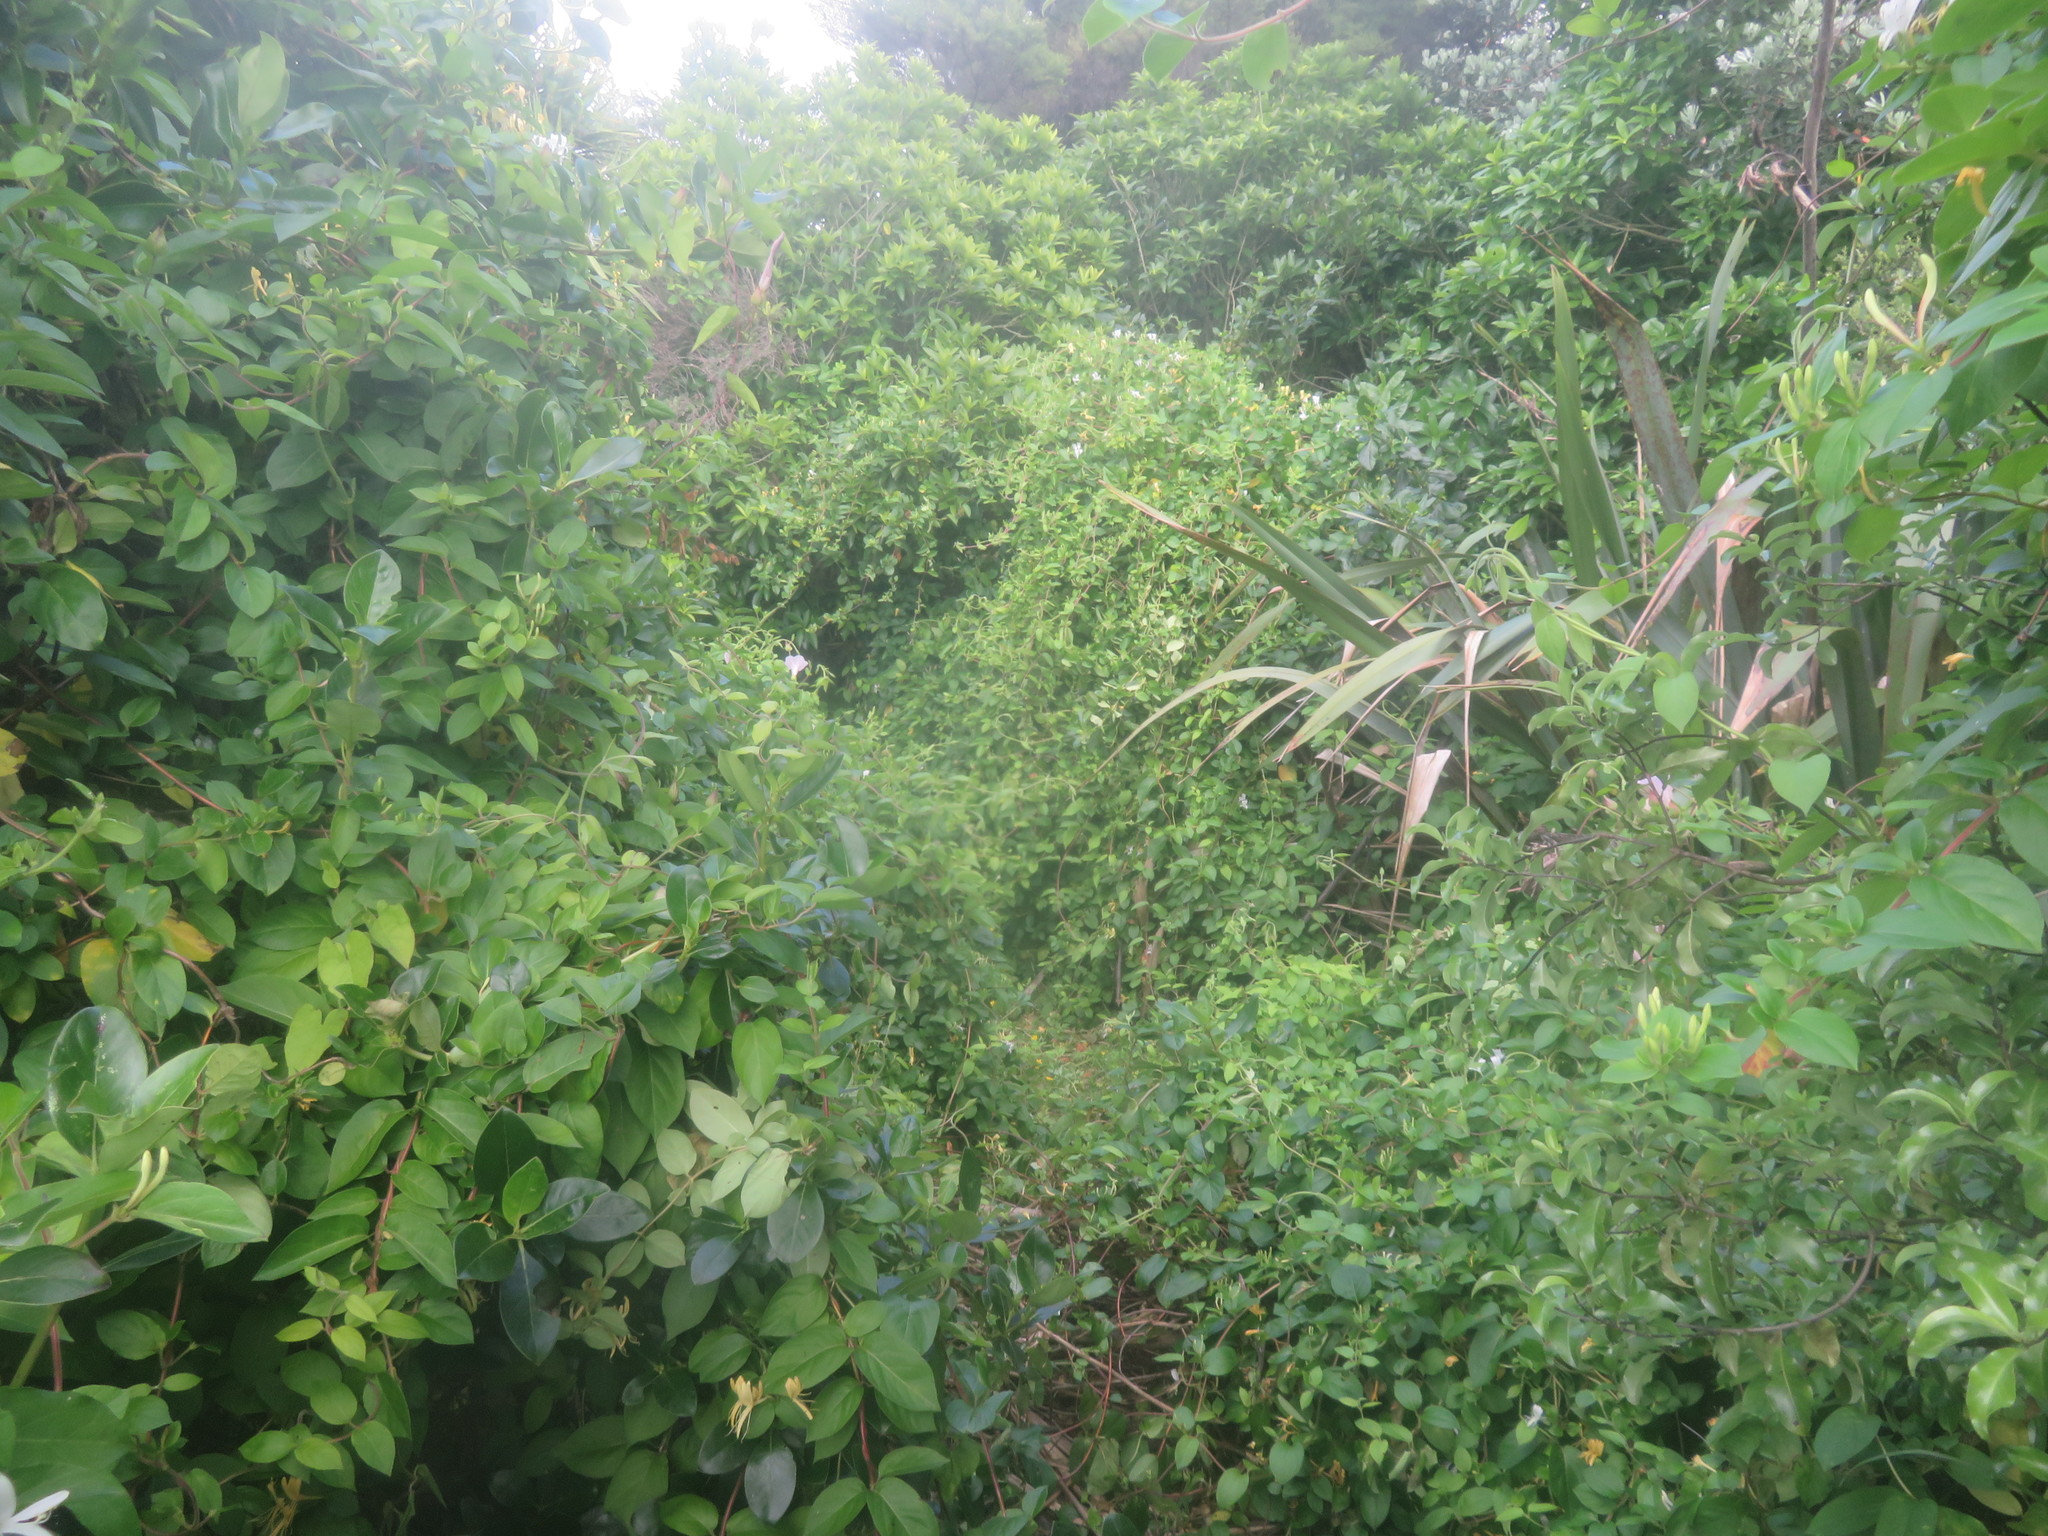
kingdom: Plantae
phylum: Tracheophyta
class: Magnoliopsida
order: Dipsacales
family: Caprifoliaceae
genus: Lonicera
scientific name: Lonicera japonica
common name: Japanese honeysuckle
